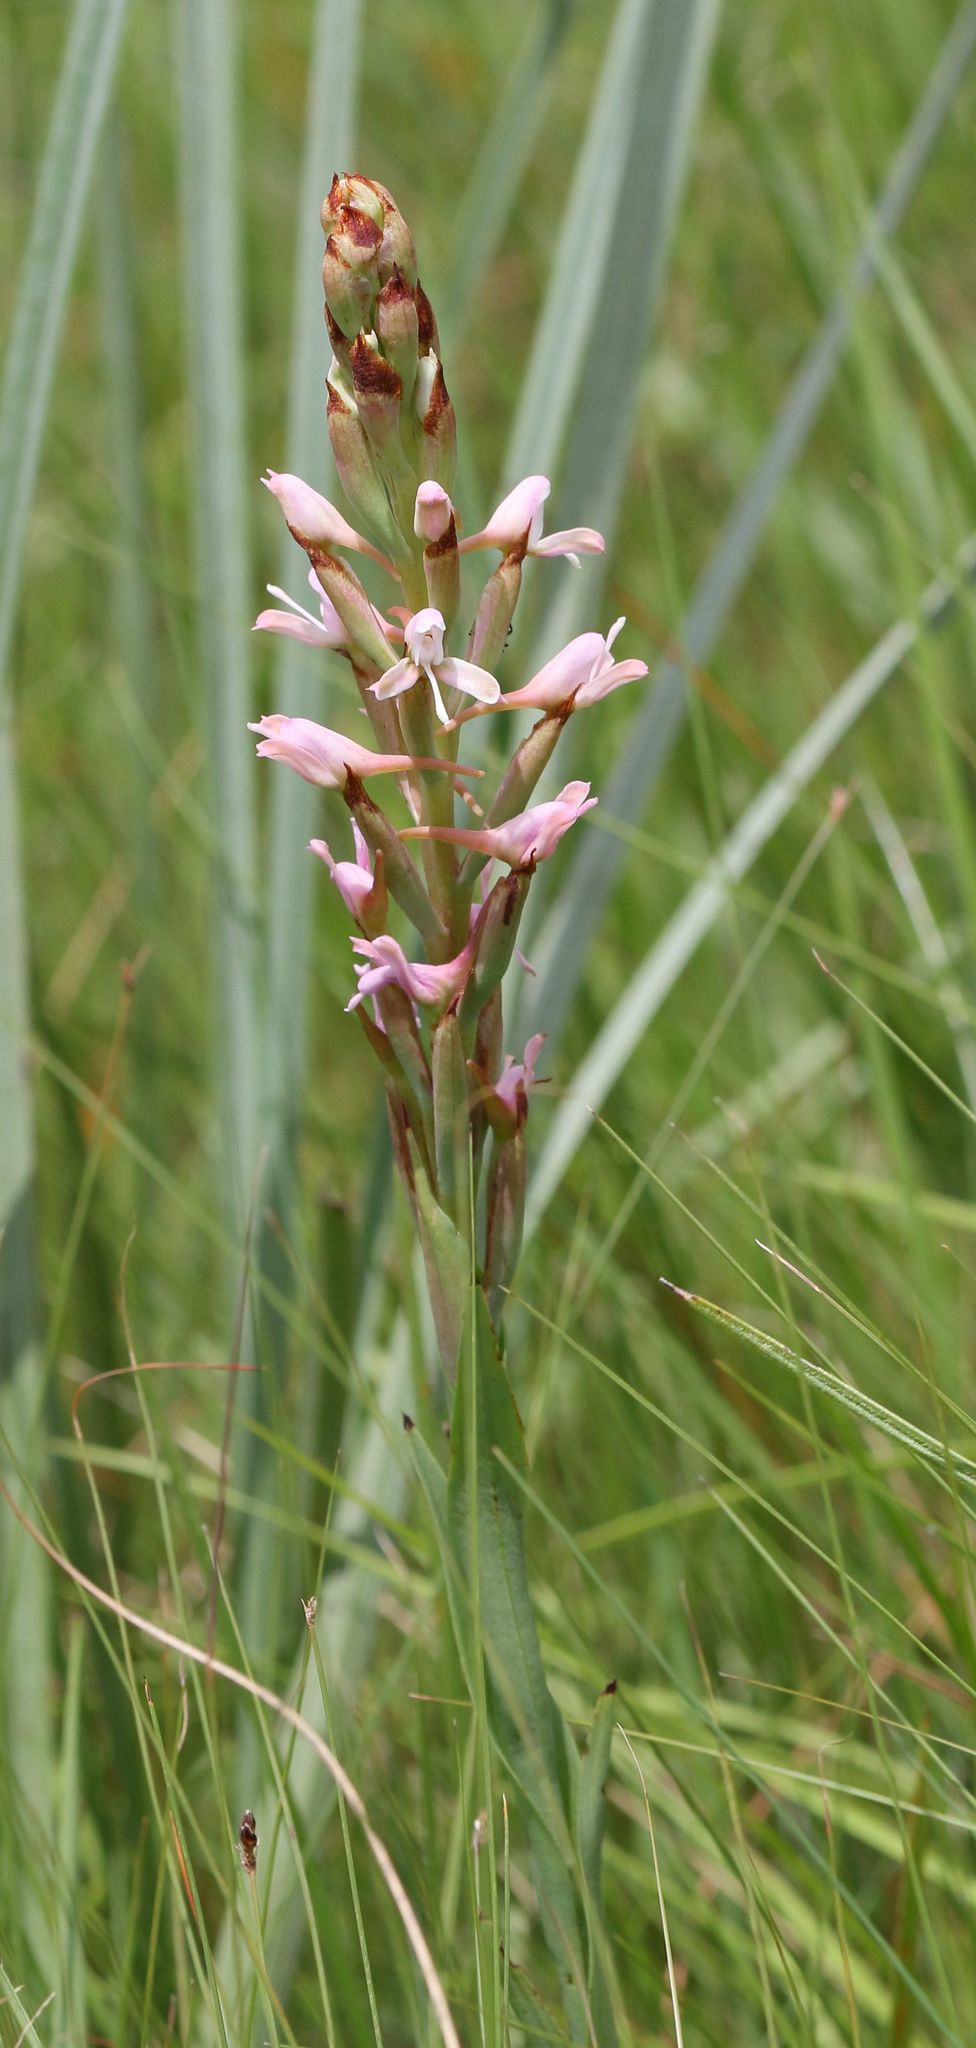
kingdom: Plantae
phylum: Tracheophyta
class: Liliopsida
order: Asparagales
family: Orchidaceae
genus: Disa
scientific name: Disa patula
